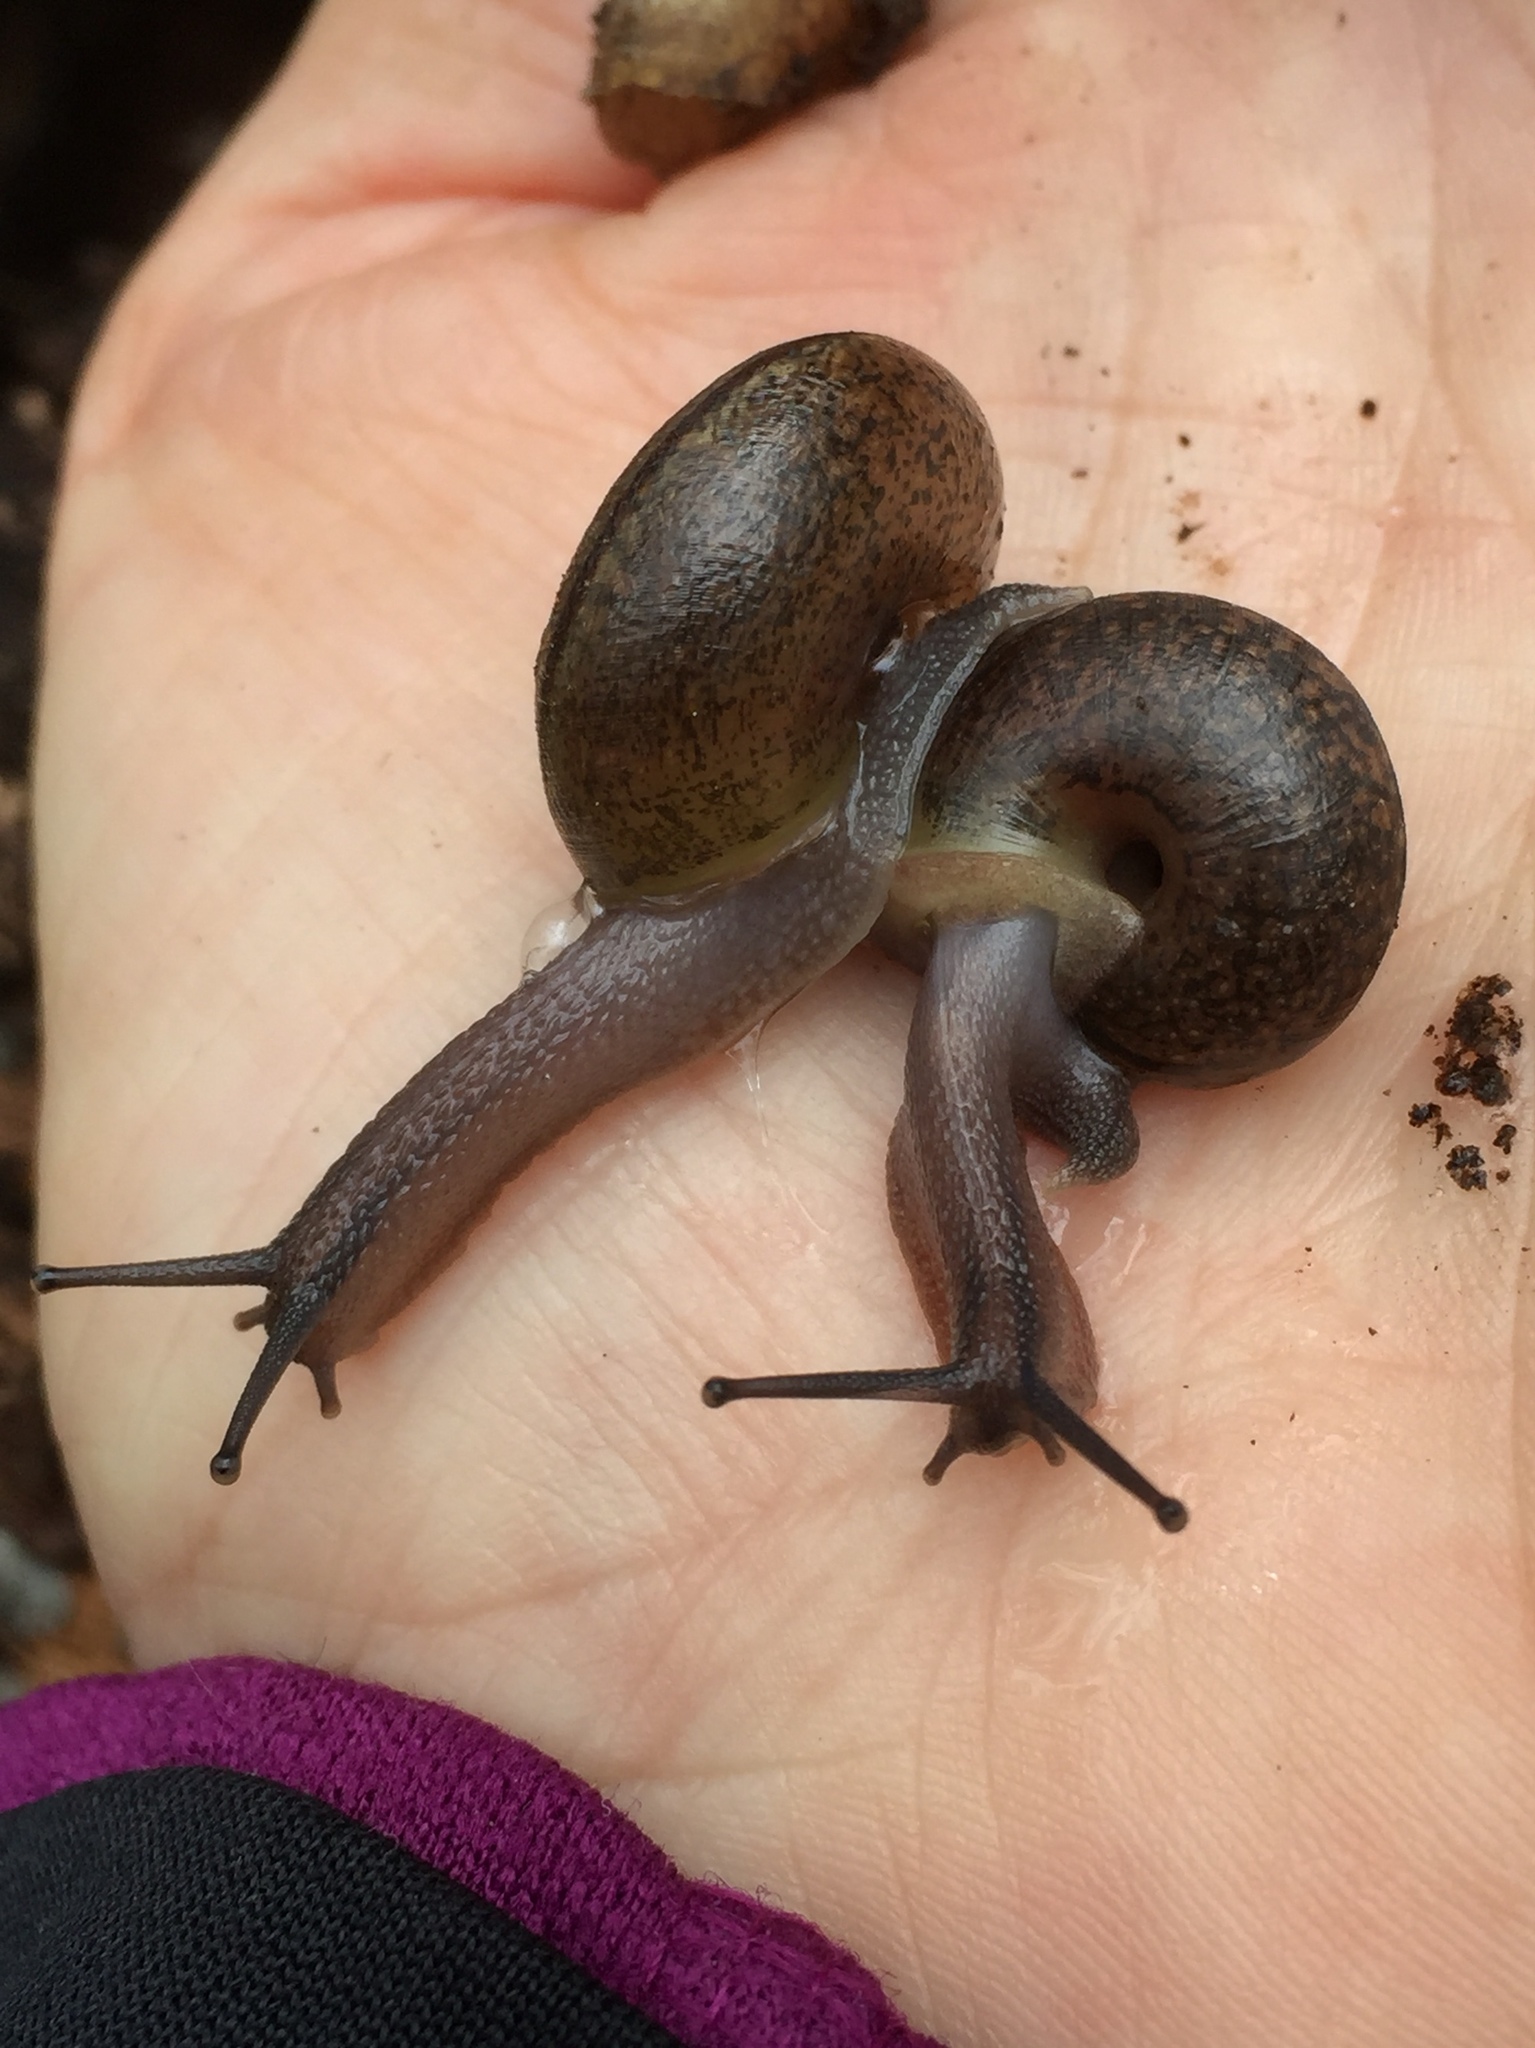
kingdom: Animalia
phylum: Mollusca
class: Gastropoda
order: Stylommatophora
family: Xanthonychidae
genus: Helminthoglypta
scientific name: Helminthoglypta contracostae
